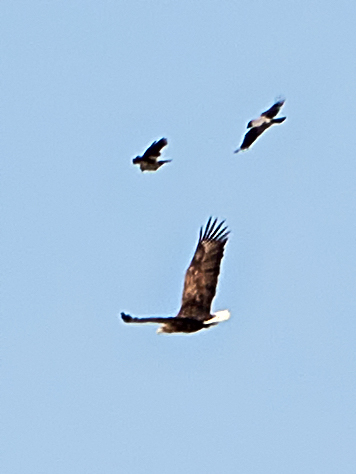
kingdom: Animalia
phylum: Chordata
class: Aves
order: Accipitriformes
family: Accipitridae
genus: Haliaeetus
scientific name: Haliaeetus albicilla
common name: White-tailed eagle
